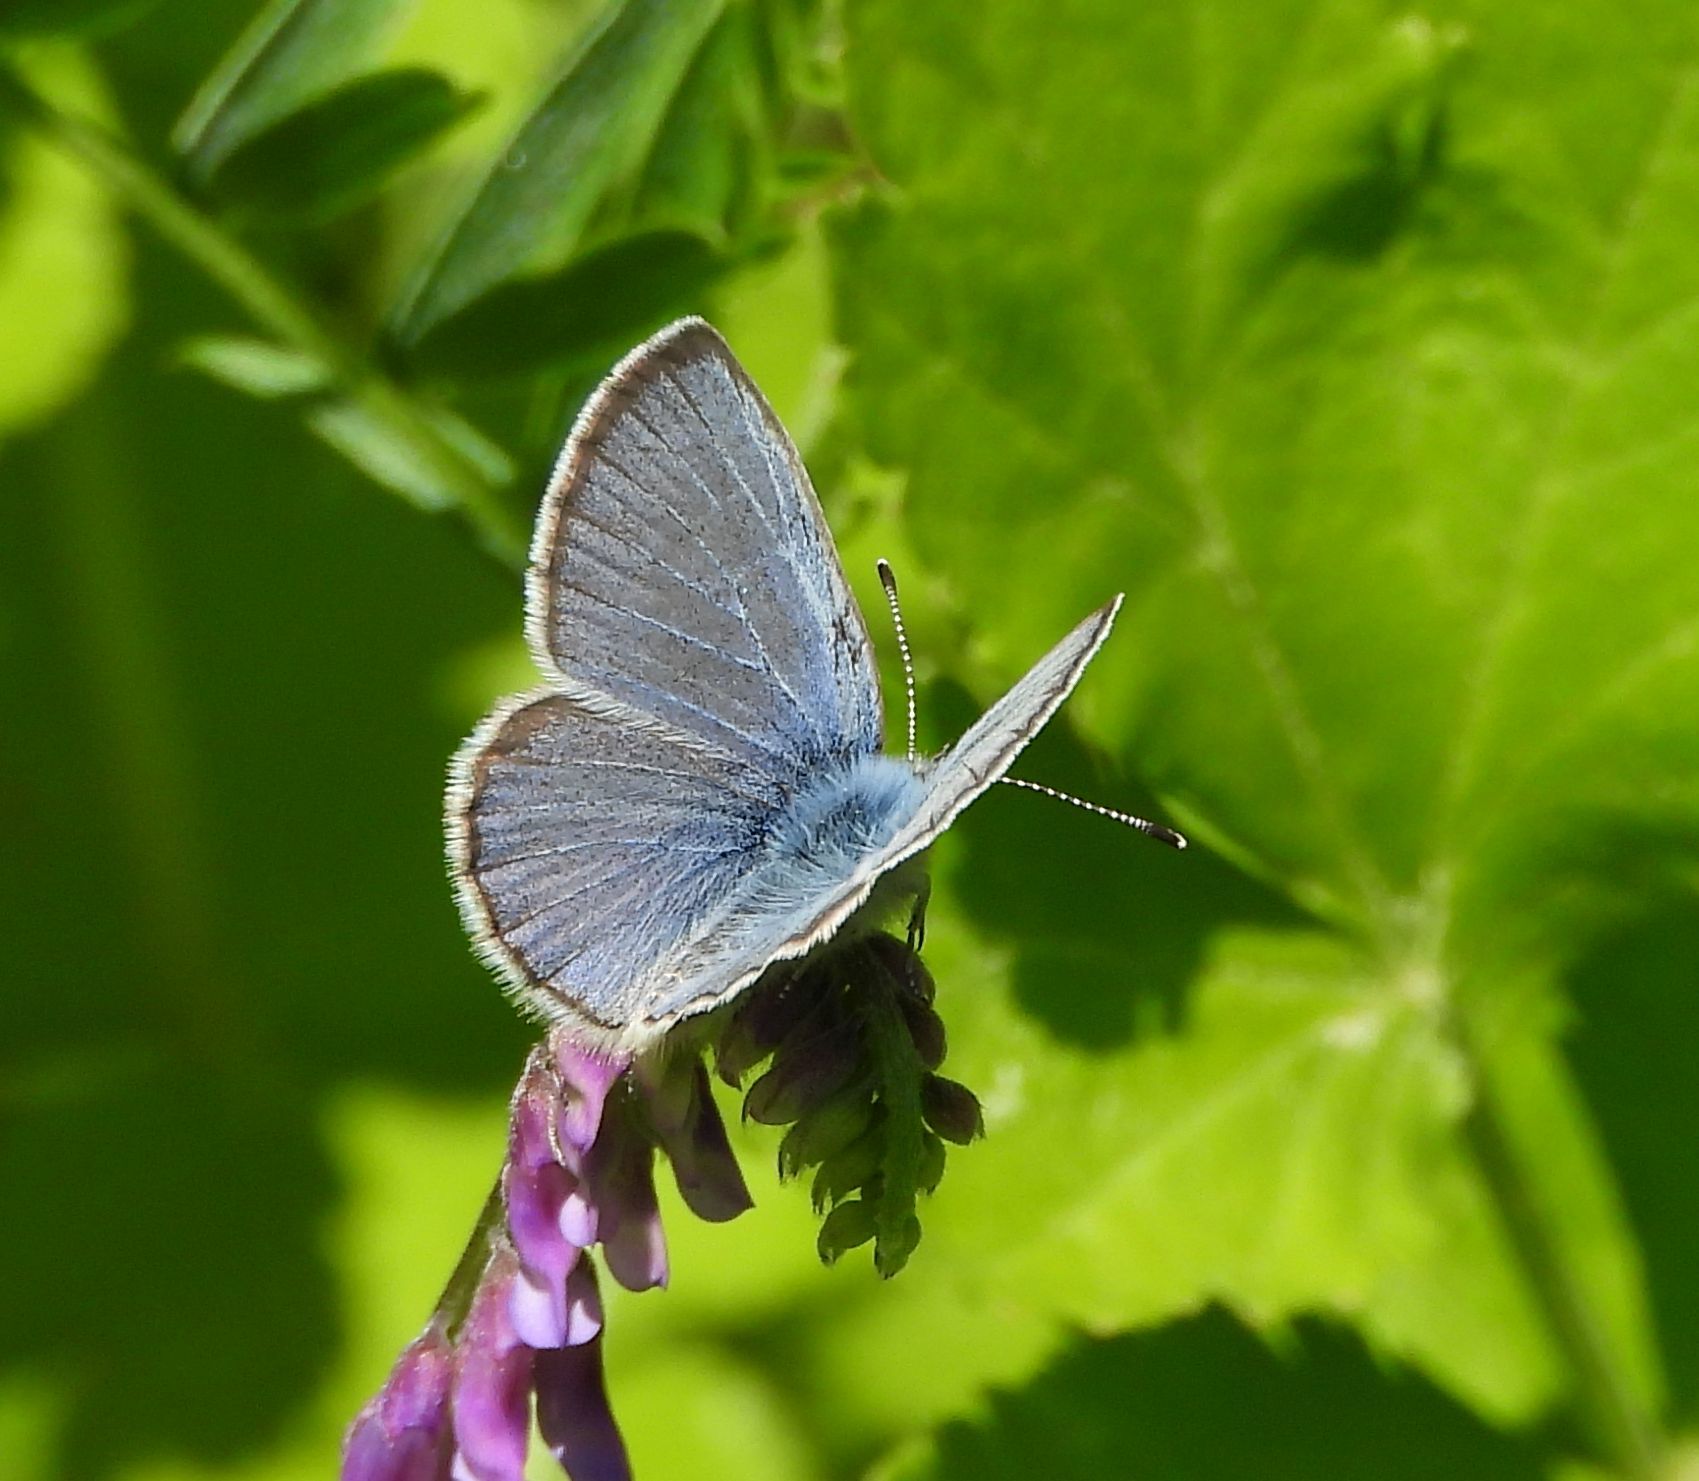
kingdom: Animalia
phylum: Arthropoda
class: Insecta
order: Lepidoptera
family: Lycaenidae
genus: Glaucopsyche
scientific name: Glaucopsyche lygdamus
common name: Silvery blue
